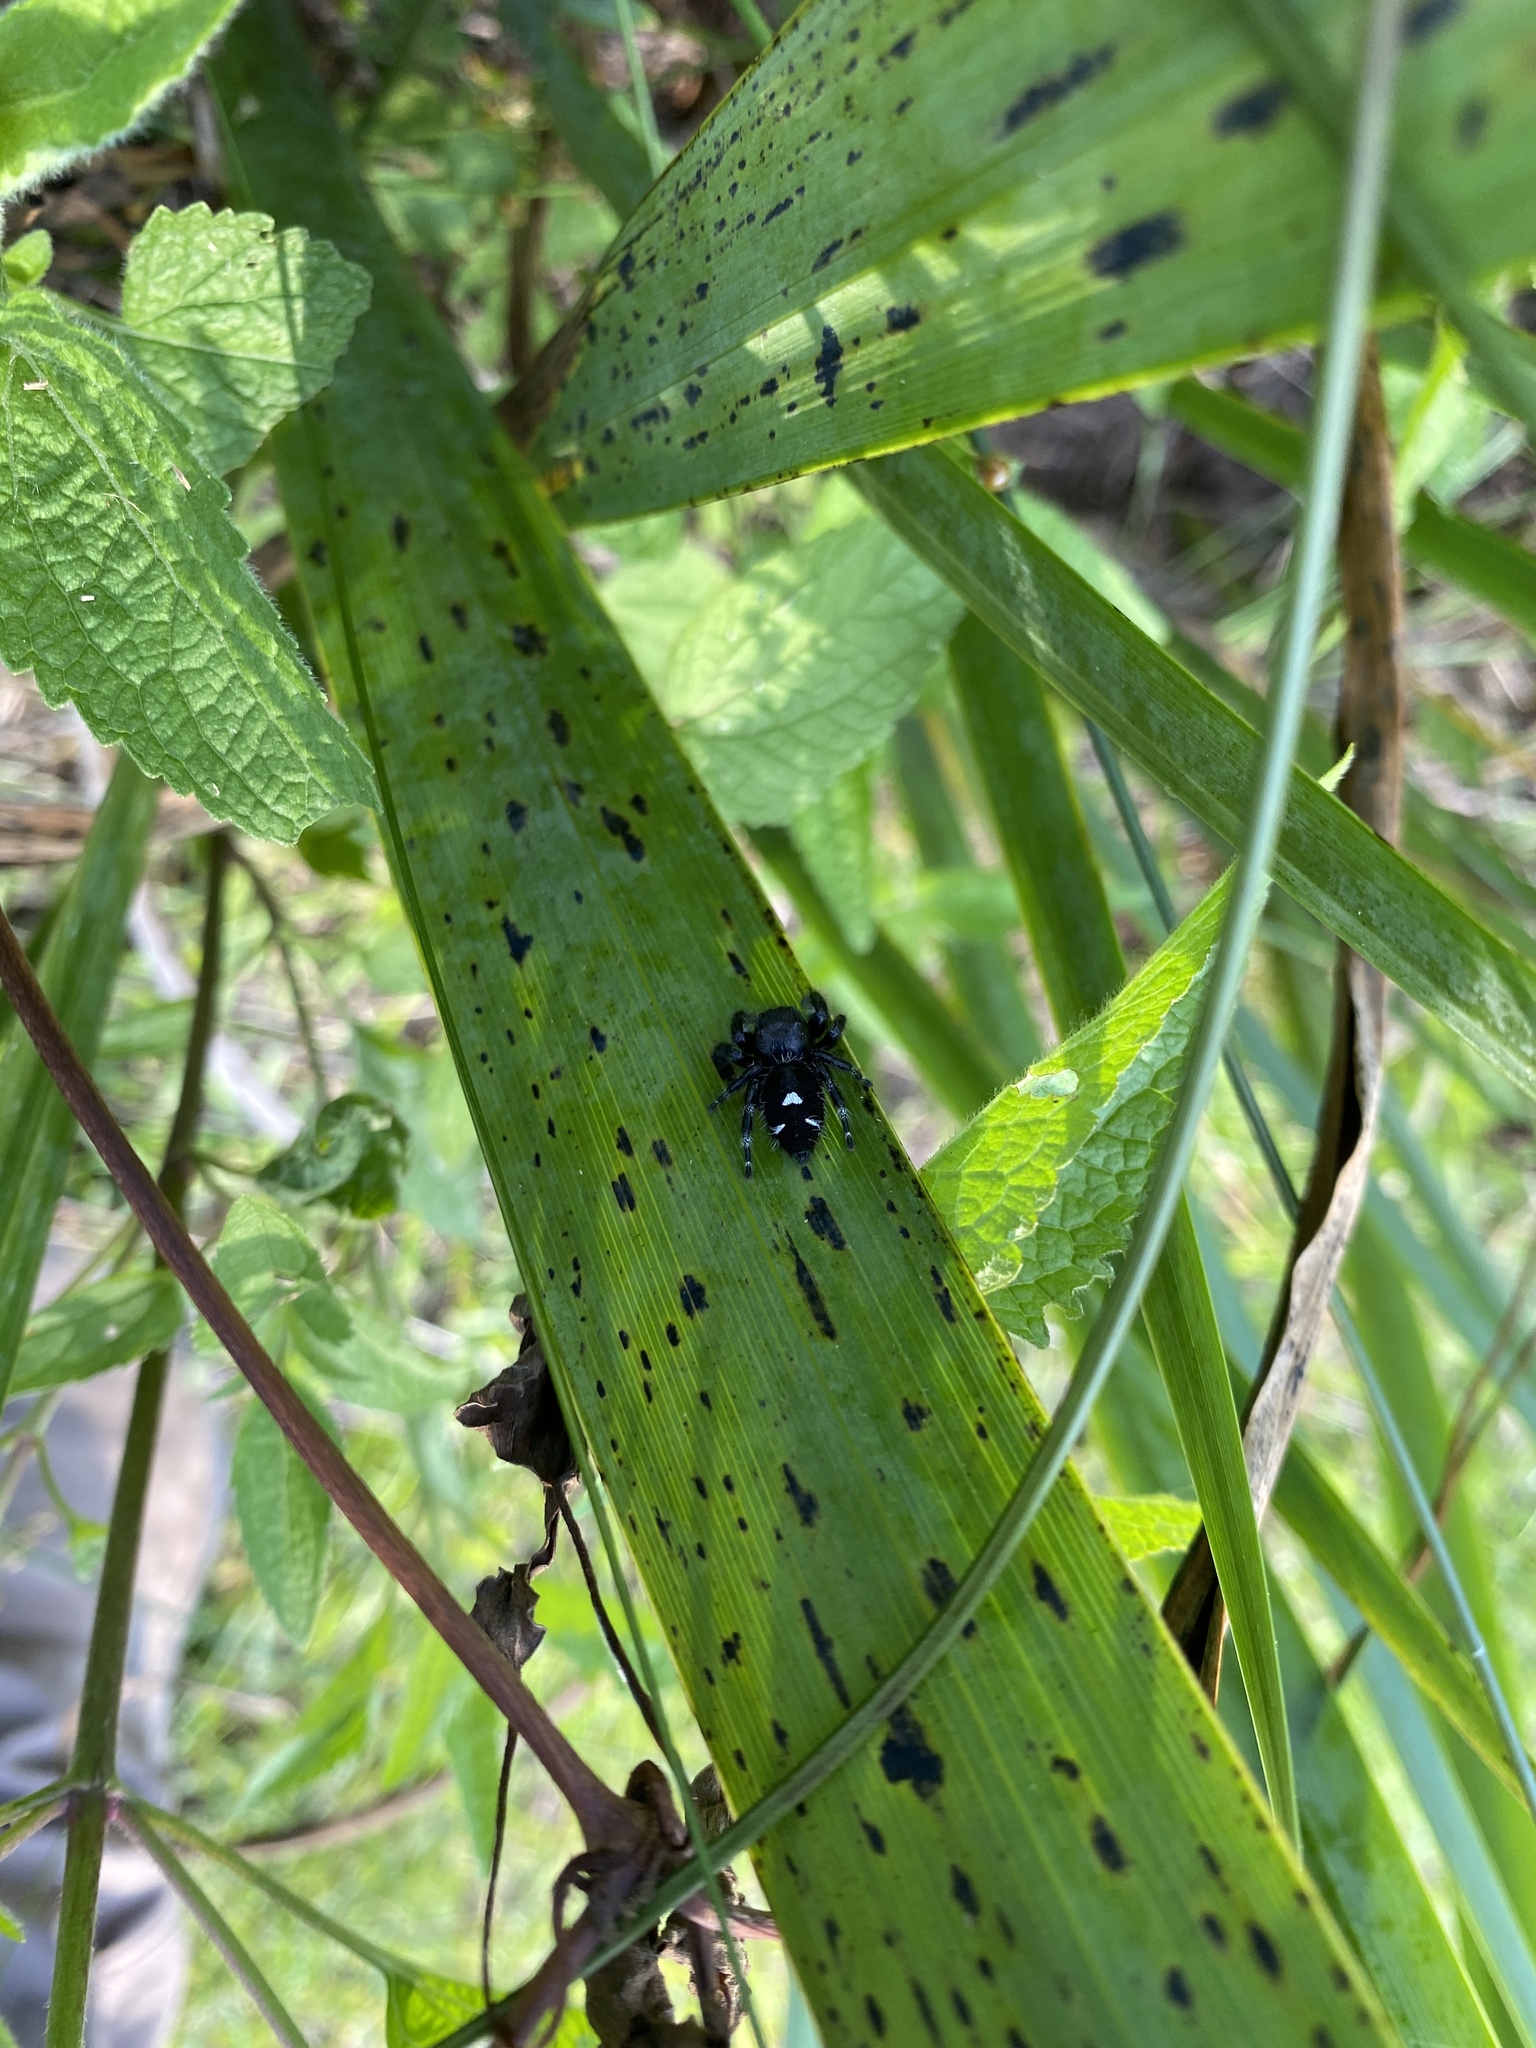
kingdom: Animalia
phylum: Arthropoda
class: Arachnida
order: Araneae
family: Salticidae
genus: Phidippus
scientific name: Phidippus audax
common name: Bold jumper
